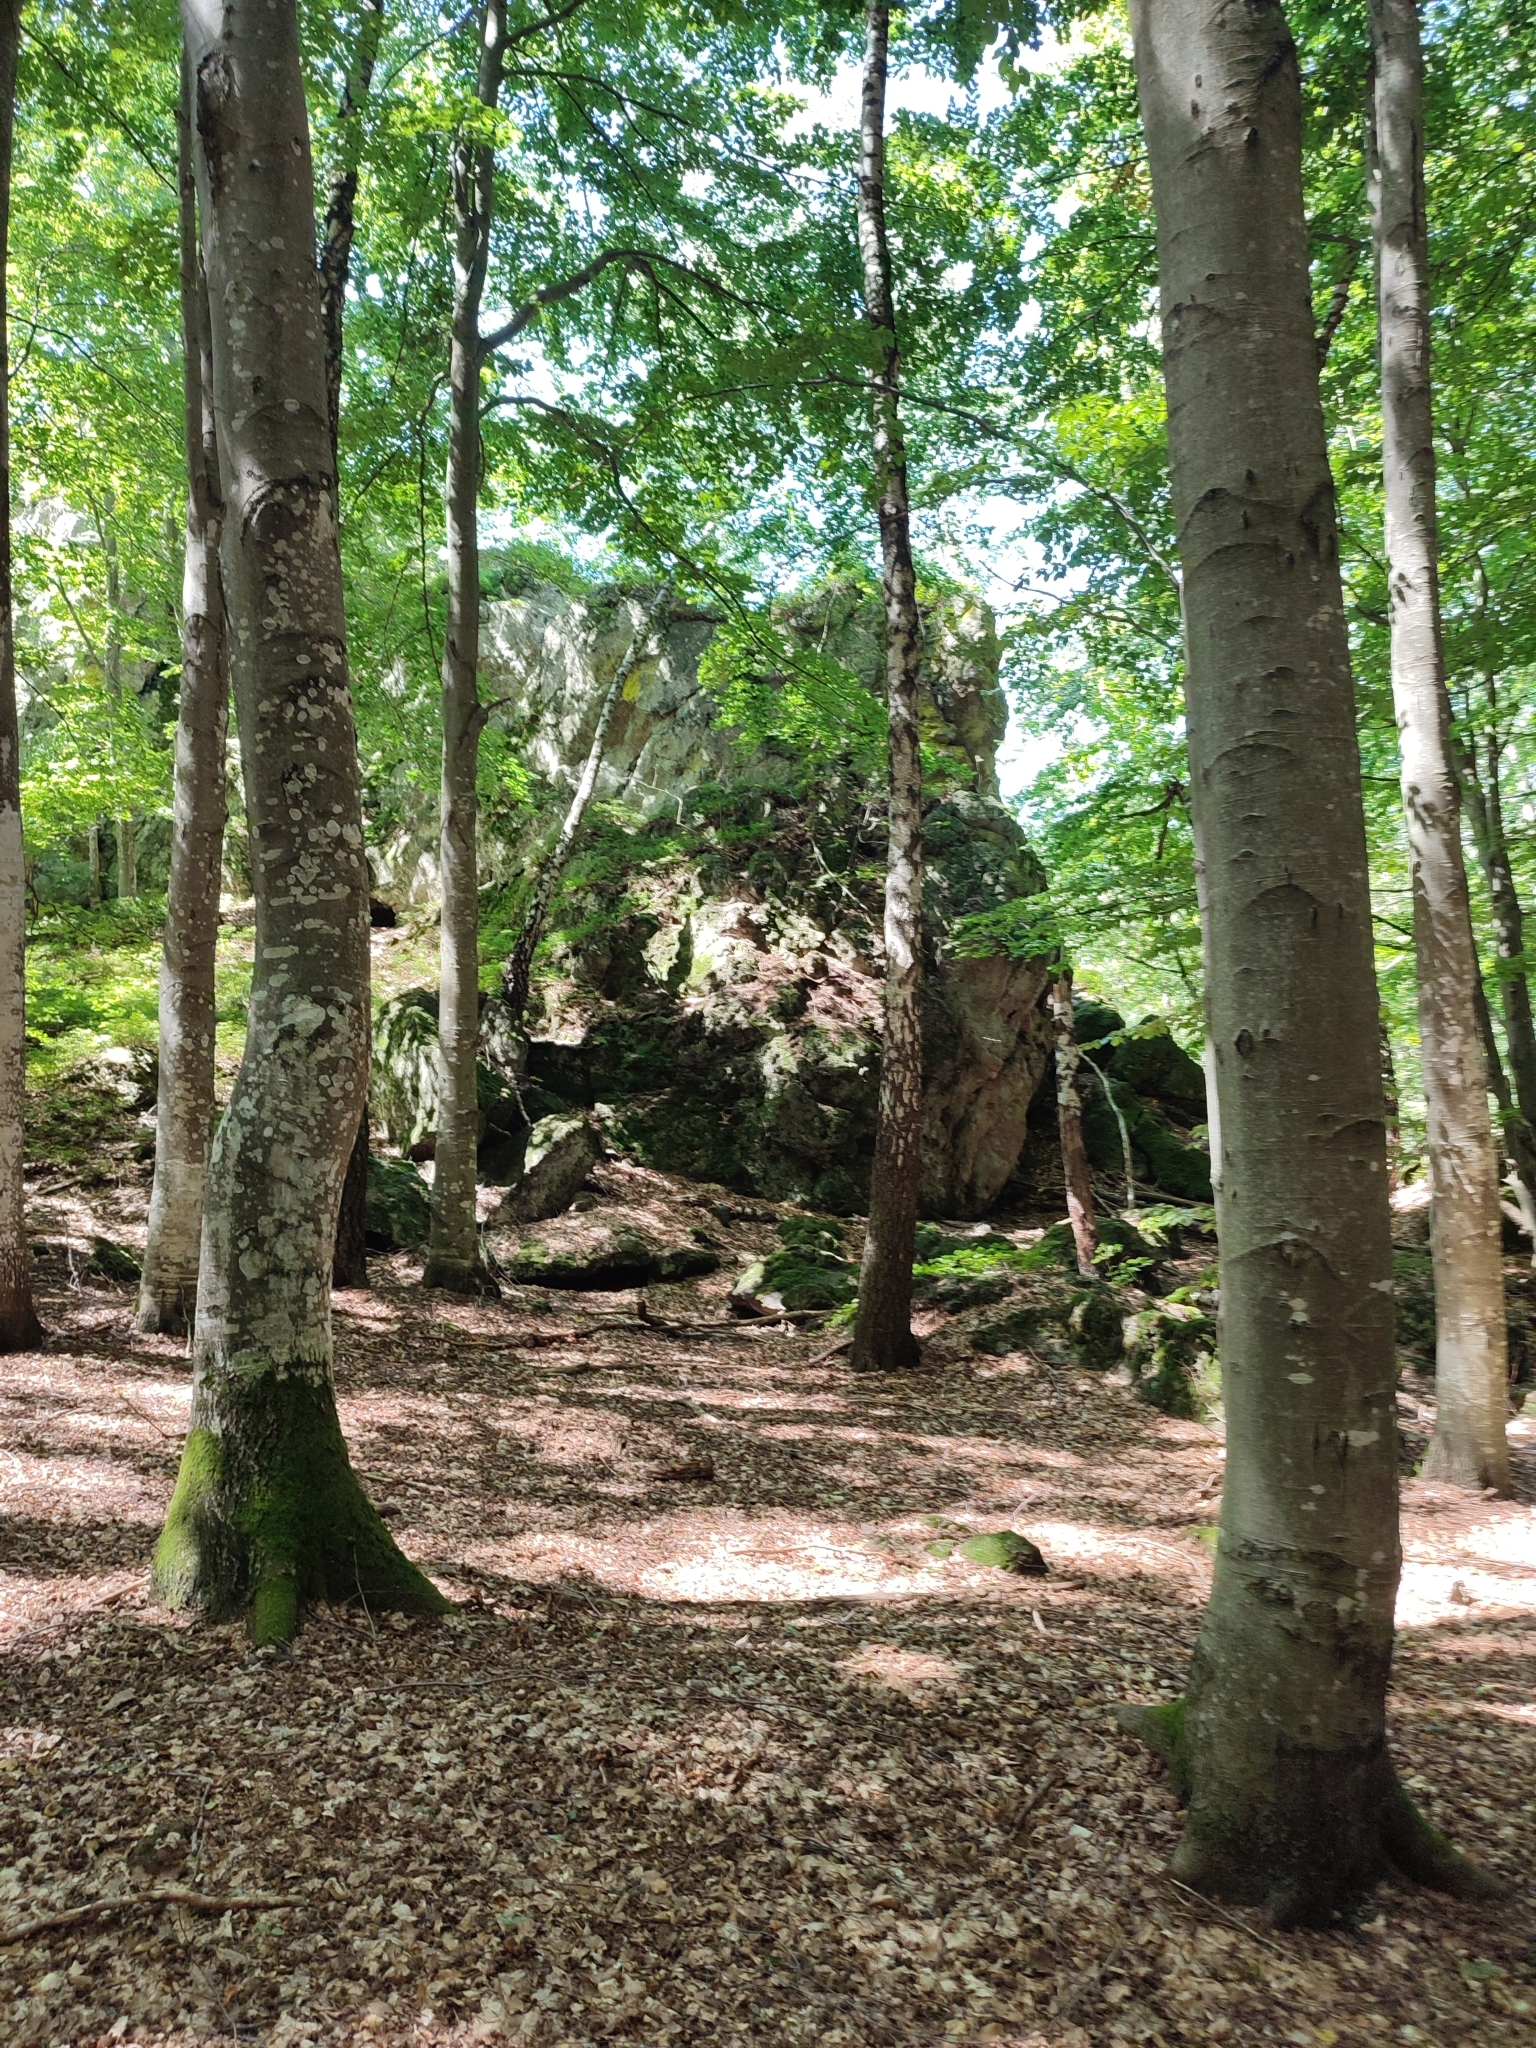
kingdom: Plantae
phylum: Tracheophyta
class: Magnoliopsida
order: Fagales
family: Fagaceae
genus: Fagus
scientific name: Fagus sylvatica
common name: Beech
